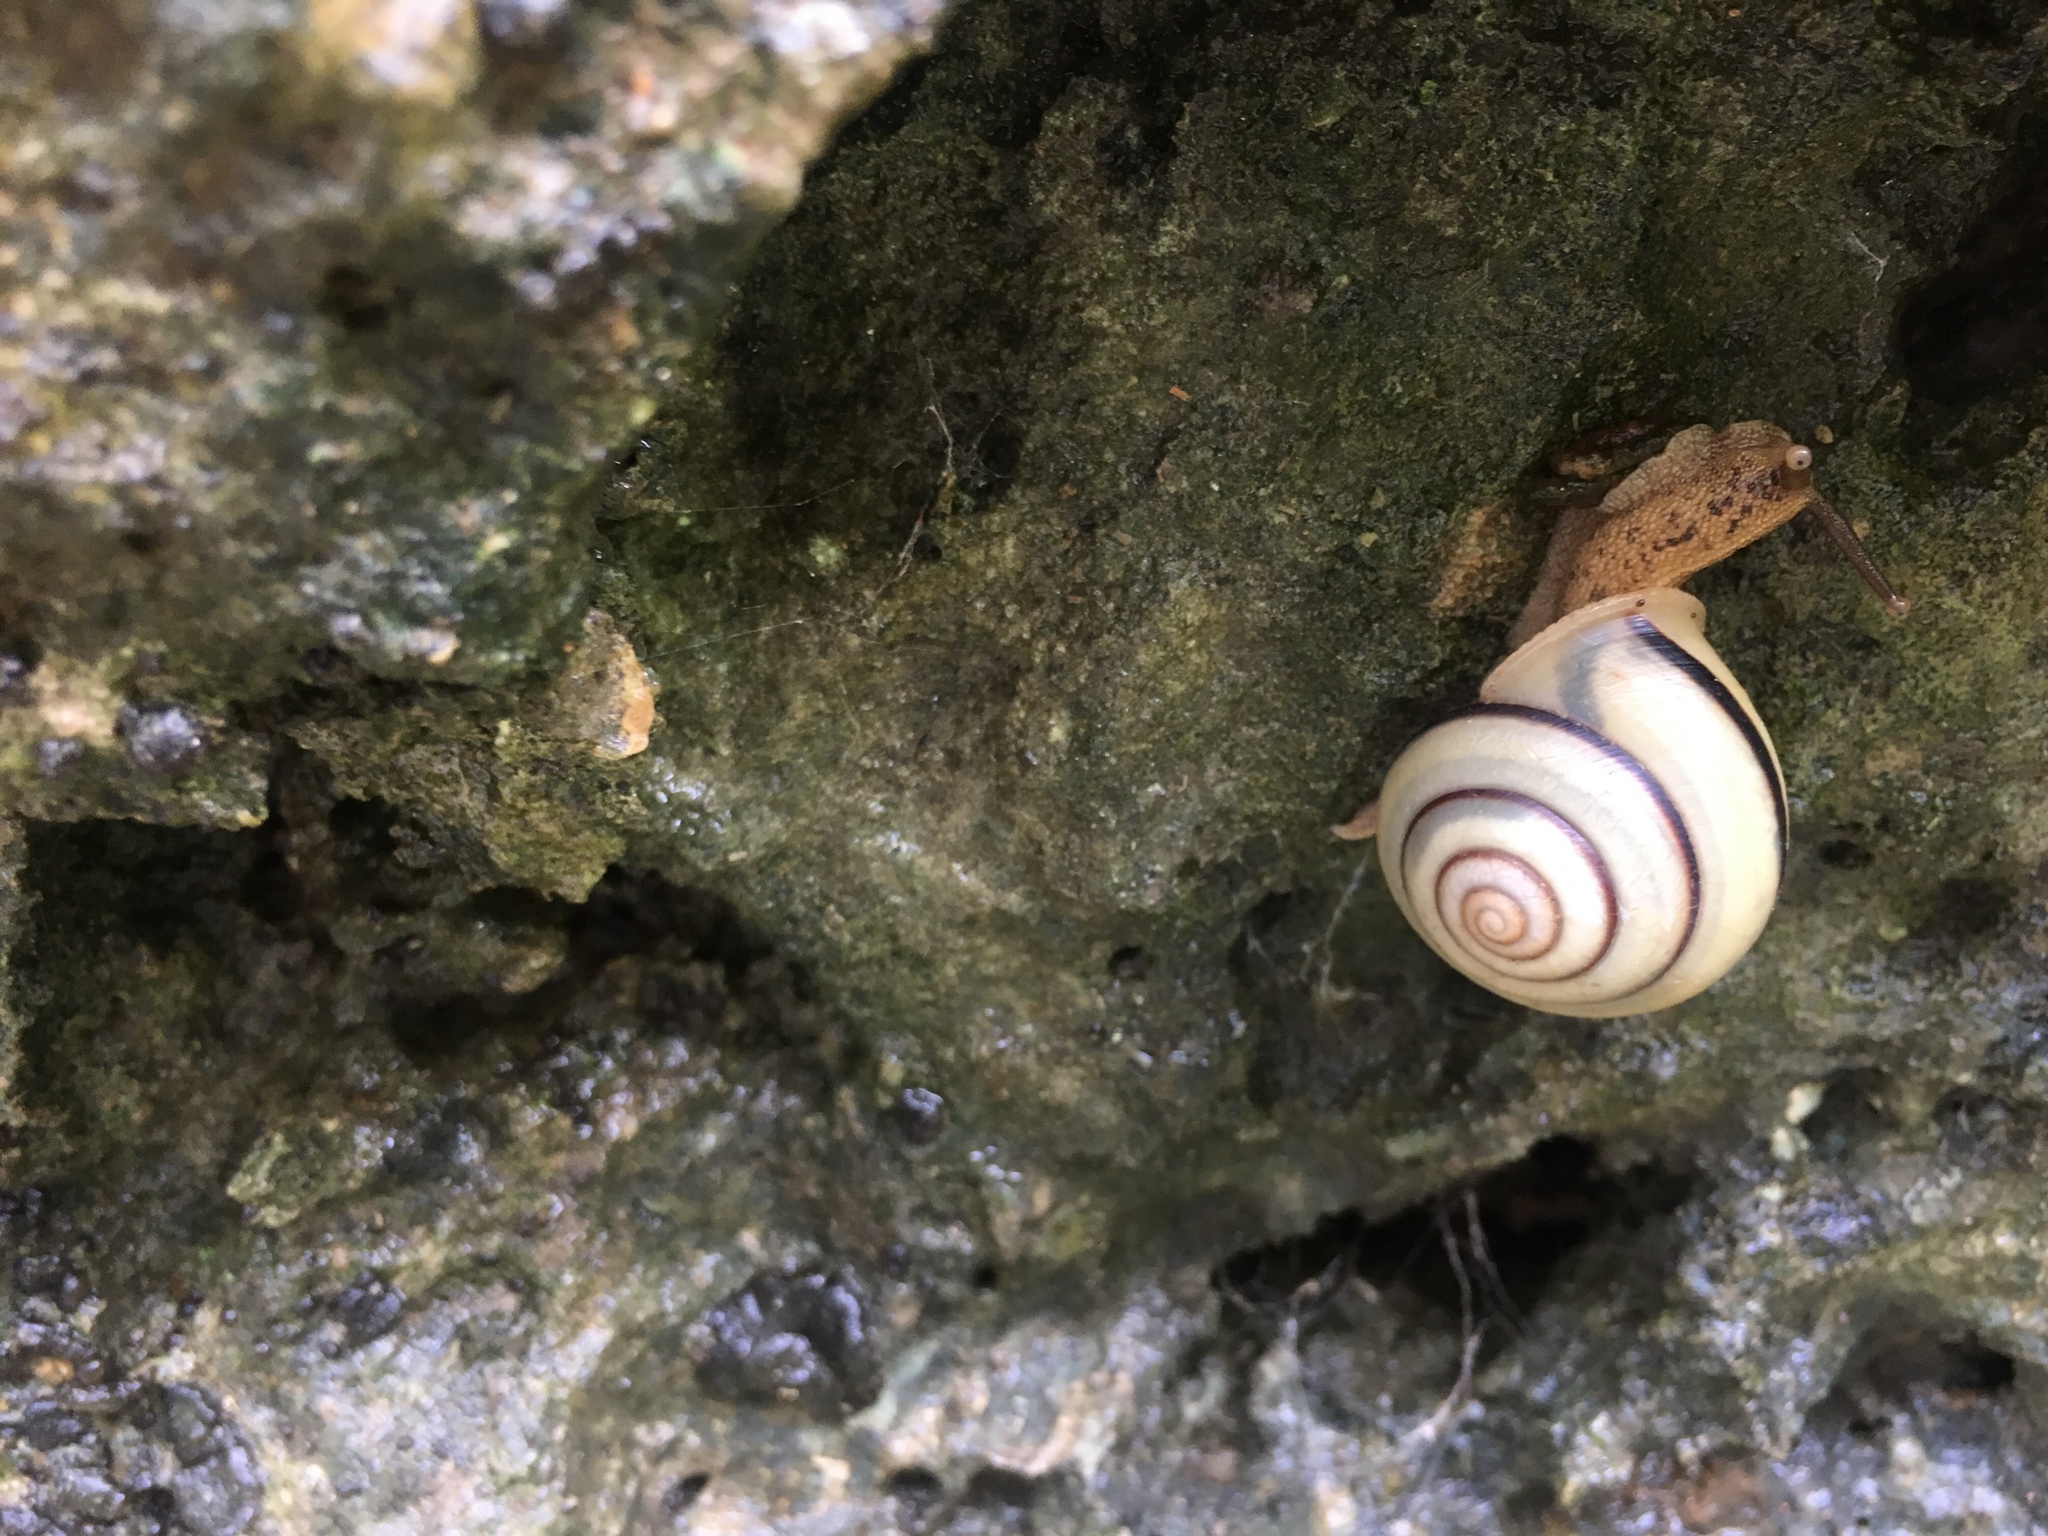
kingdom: Animalia
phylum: Mollusca
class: Gastropoda
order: Stylommatophora
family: Camaenidae
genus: Pancala
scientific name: Pancala batanica
